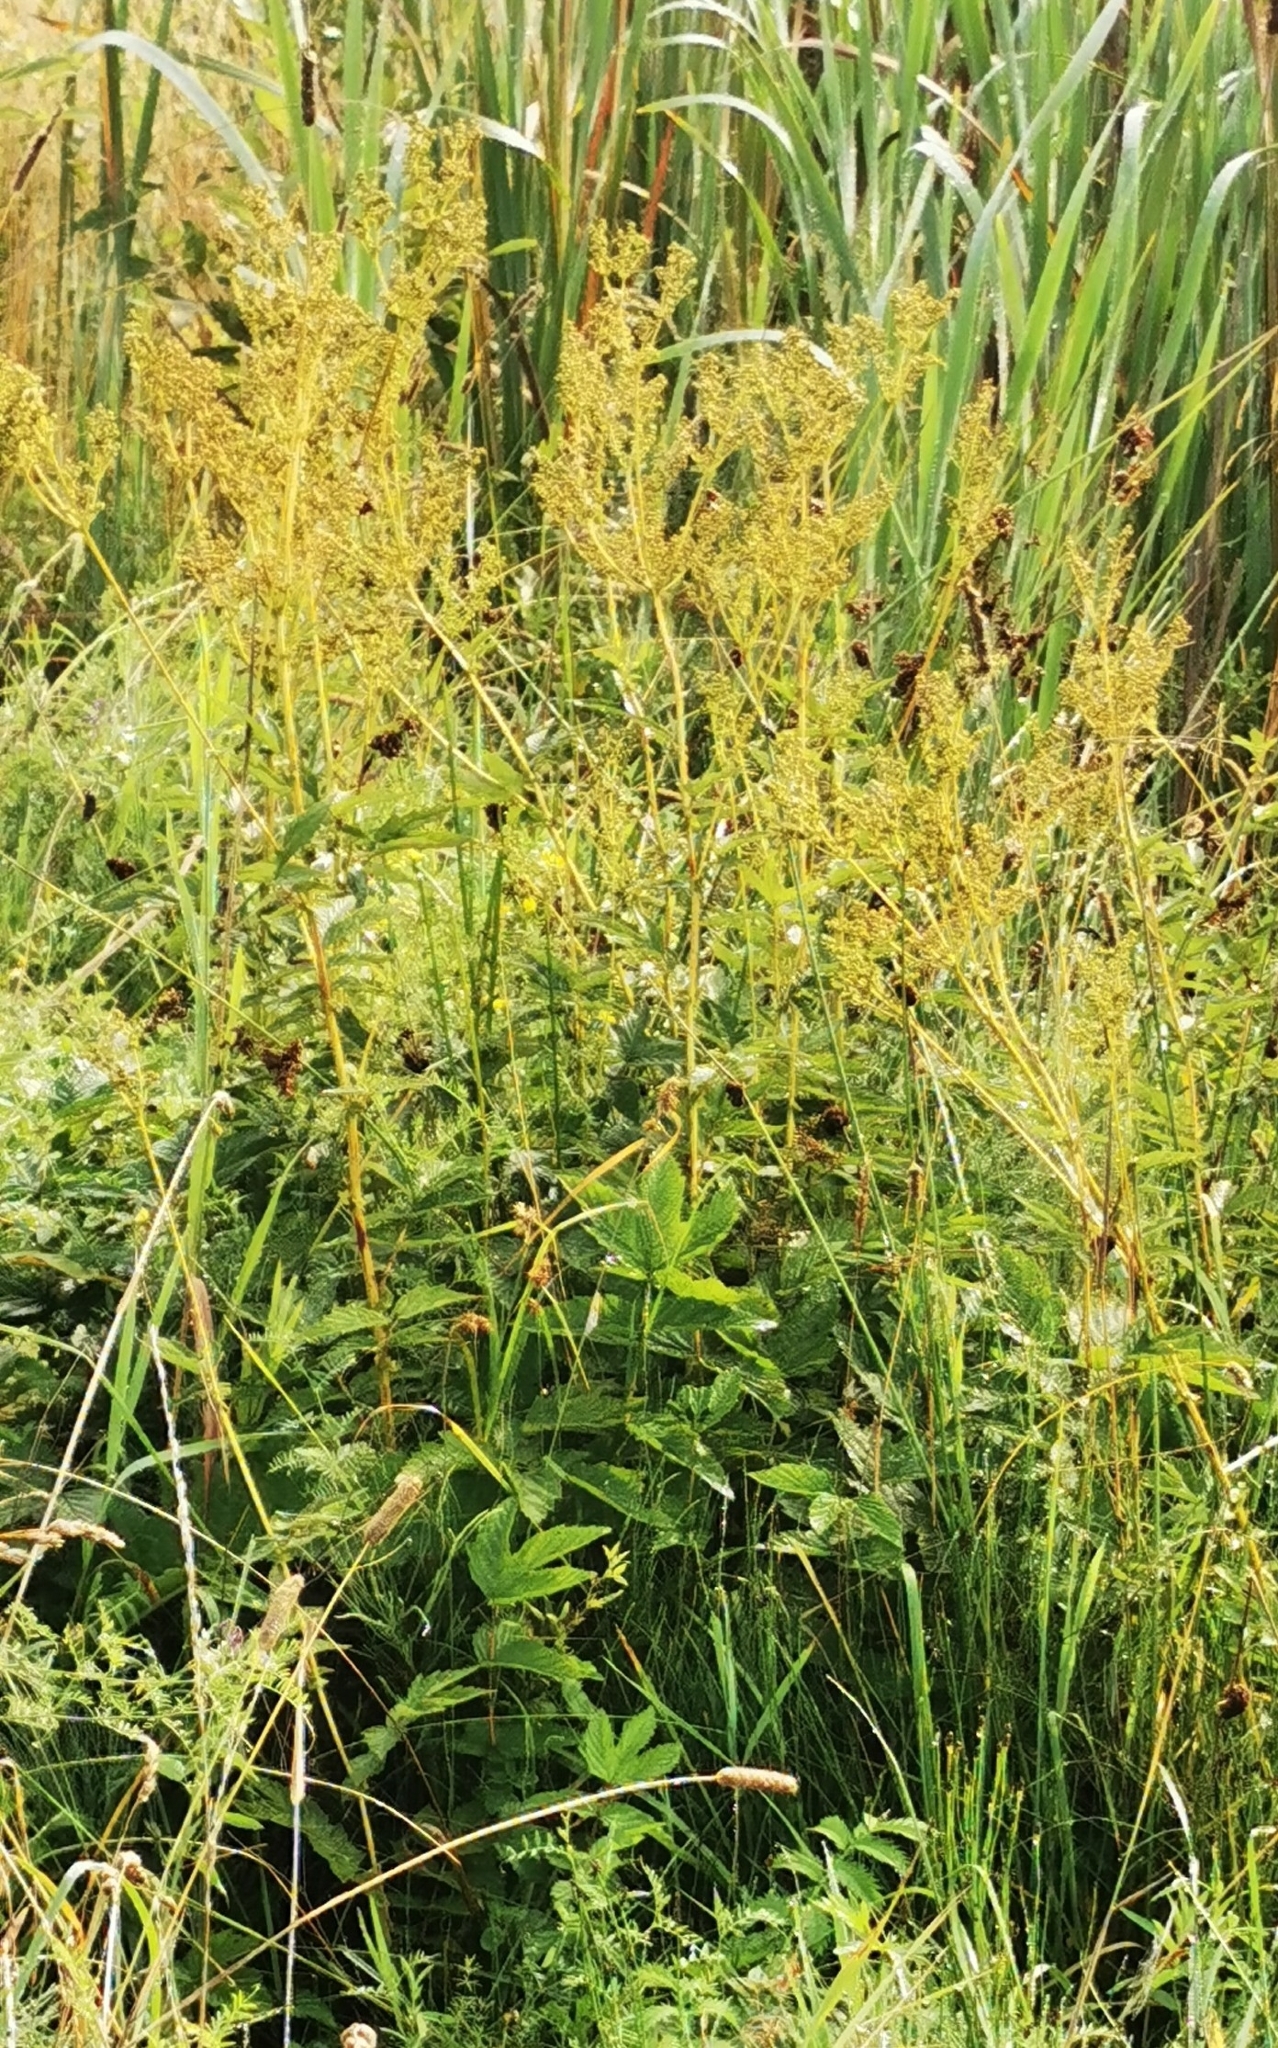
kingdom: Plantae
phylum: Tracheophyta
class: Magnoliopsida
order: Rosales
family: Rosaceae
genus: Filipendula
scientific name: Filipendula ulmaria
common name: Meadowsweet
